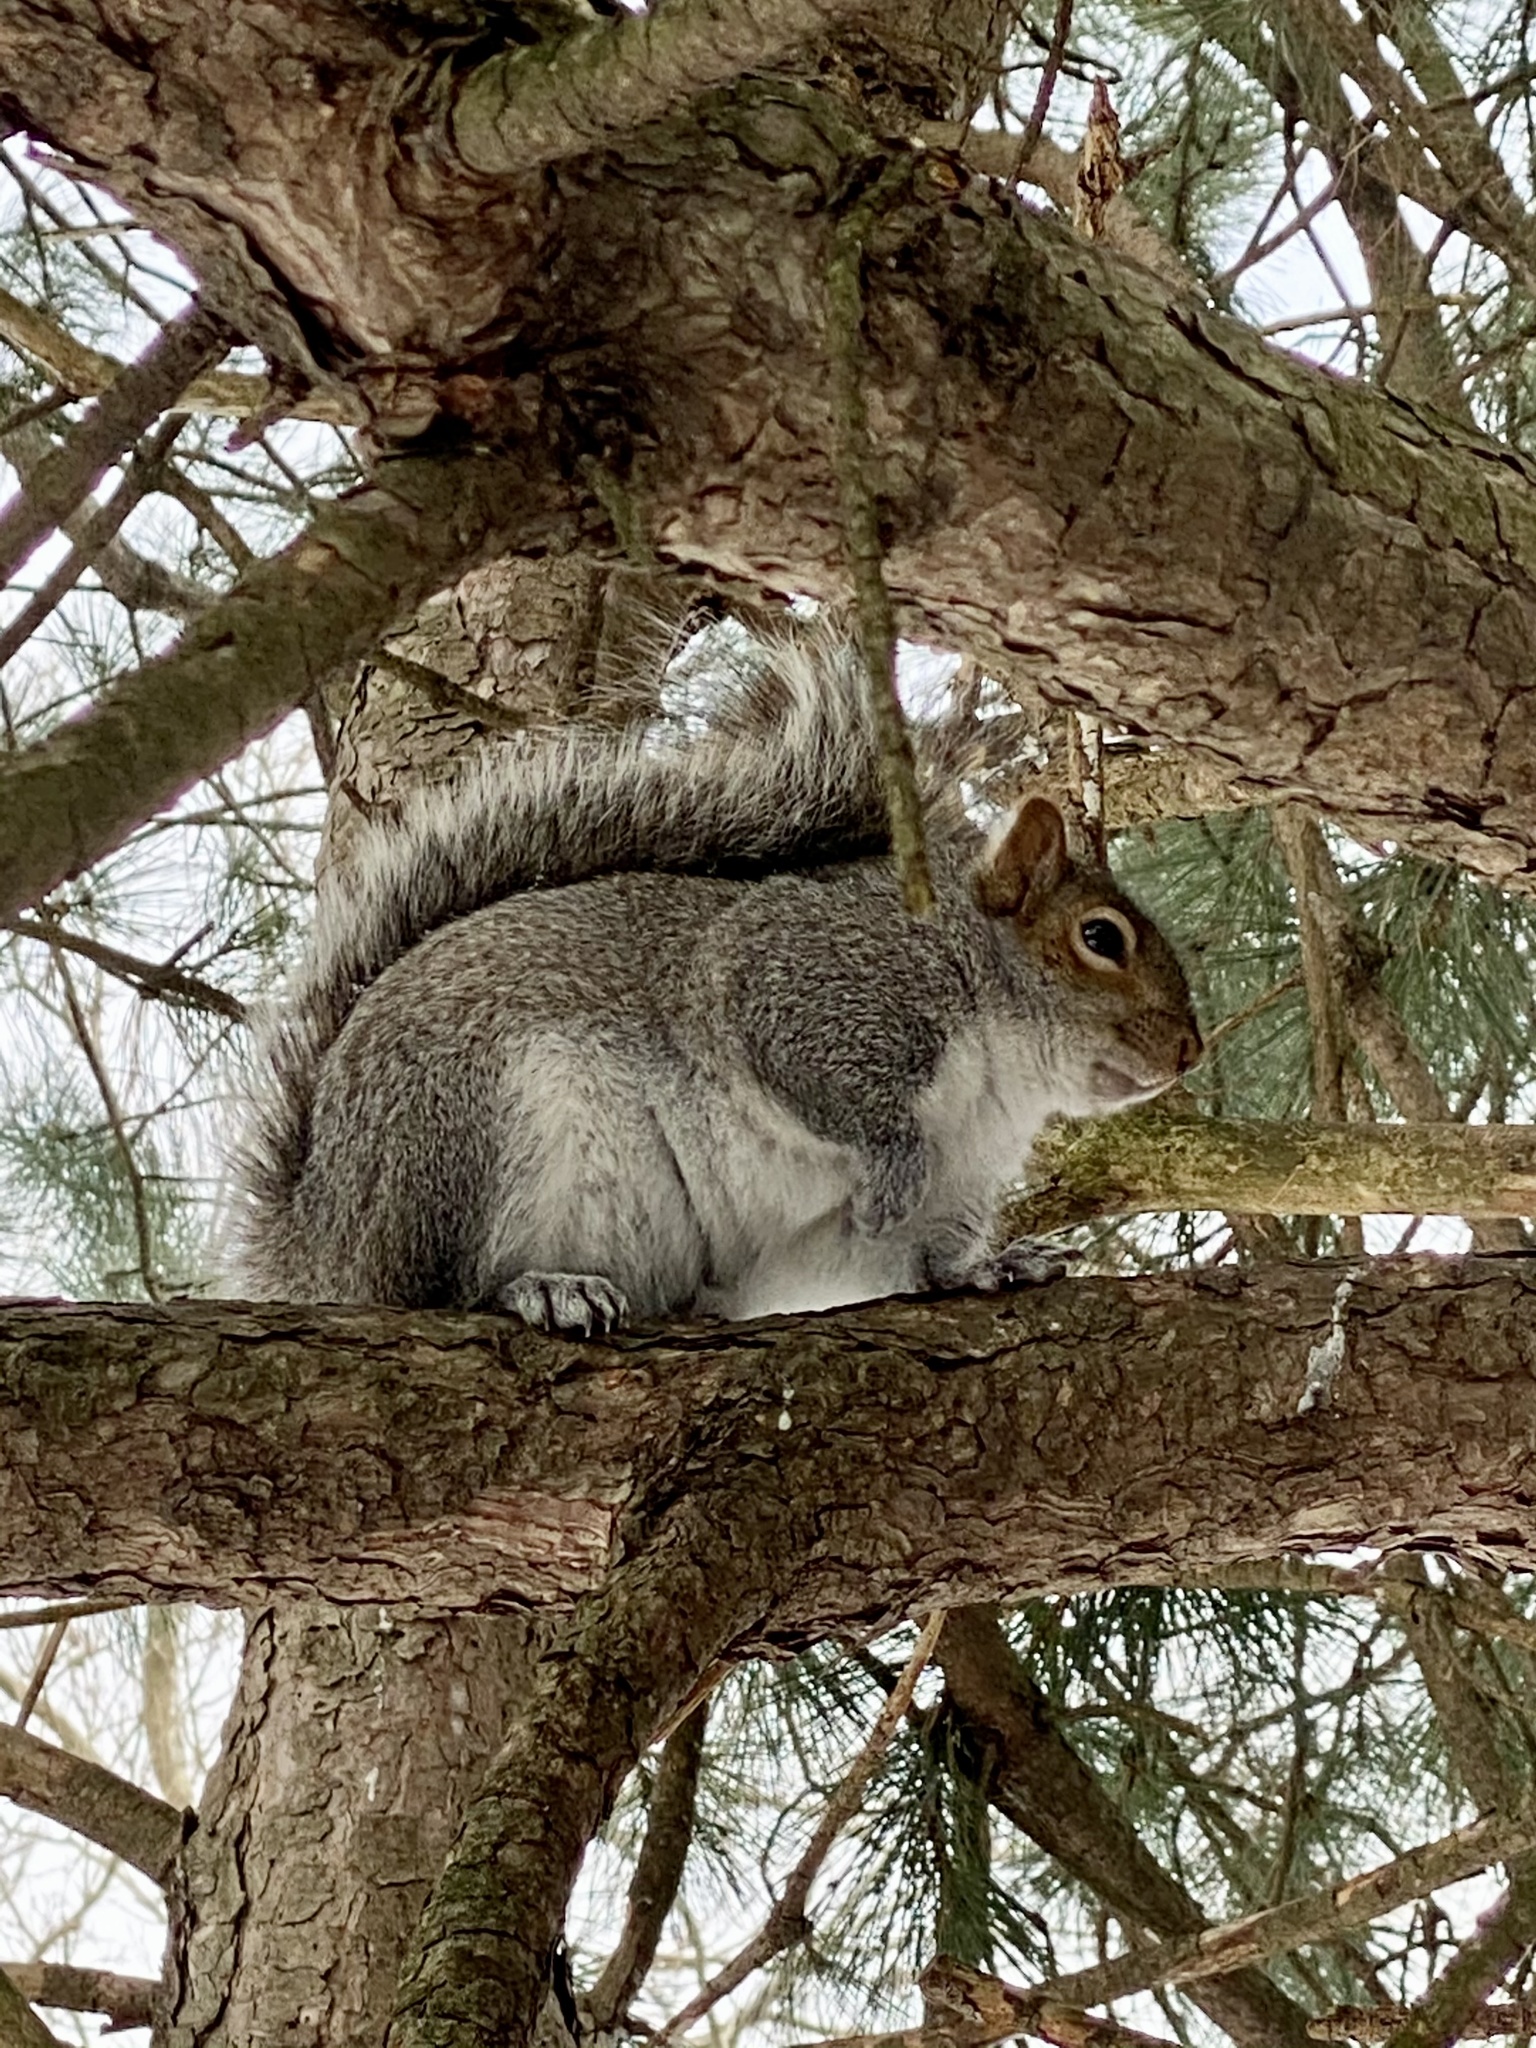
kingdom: Animalia
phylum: Chordata
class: Mammalia
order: Rodentia
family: Sciuridae
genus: Sciurus
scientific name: Sciurus carolinensis
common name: Eastern gray squirrel
